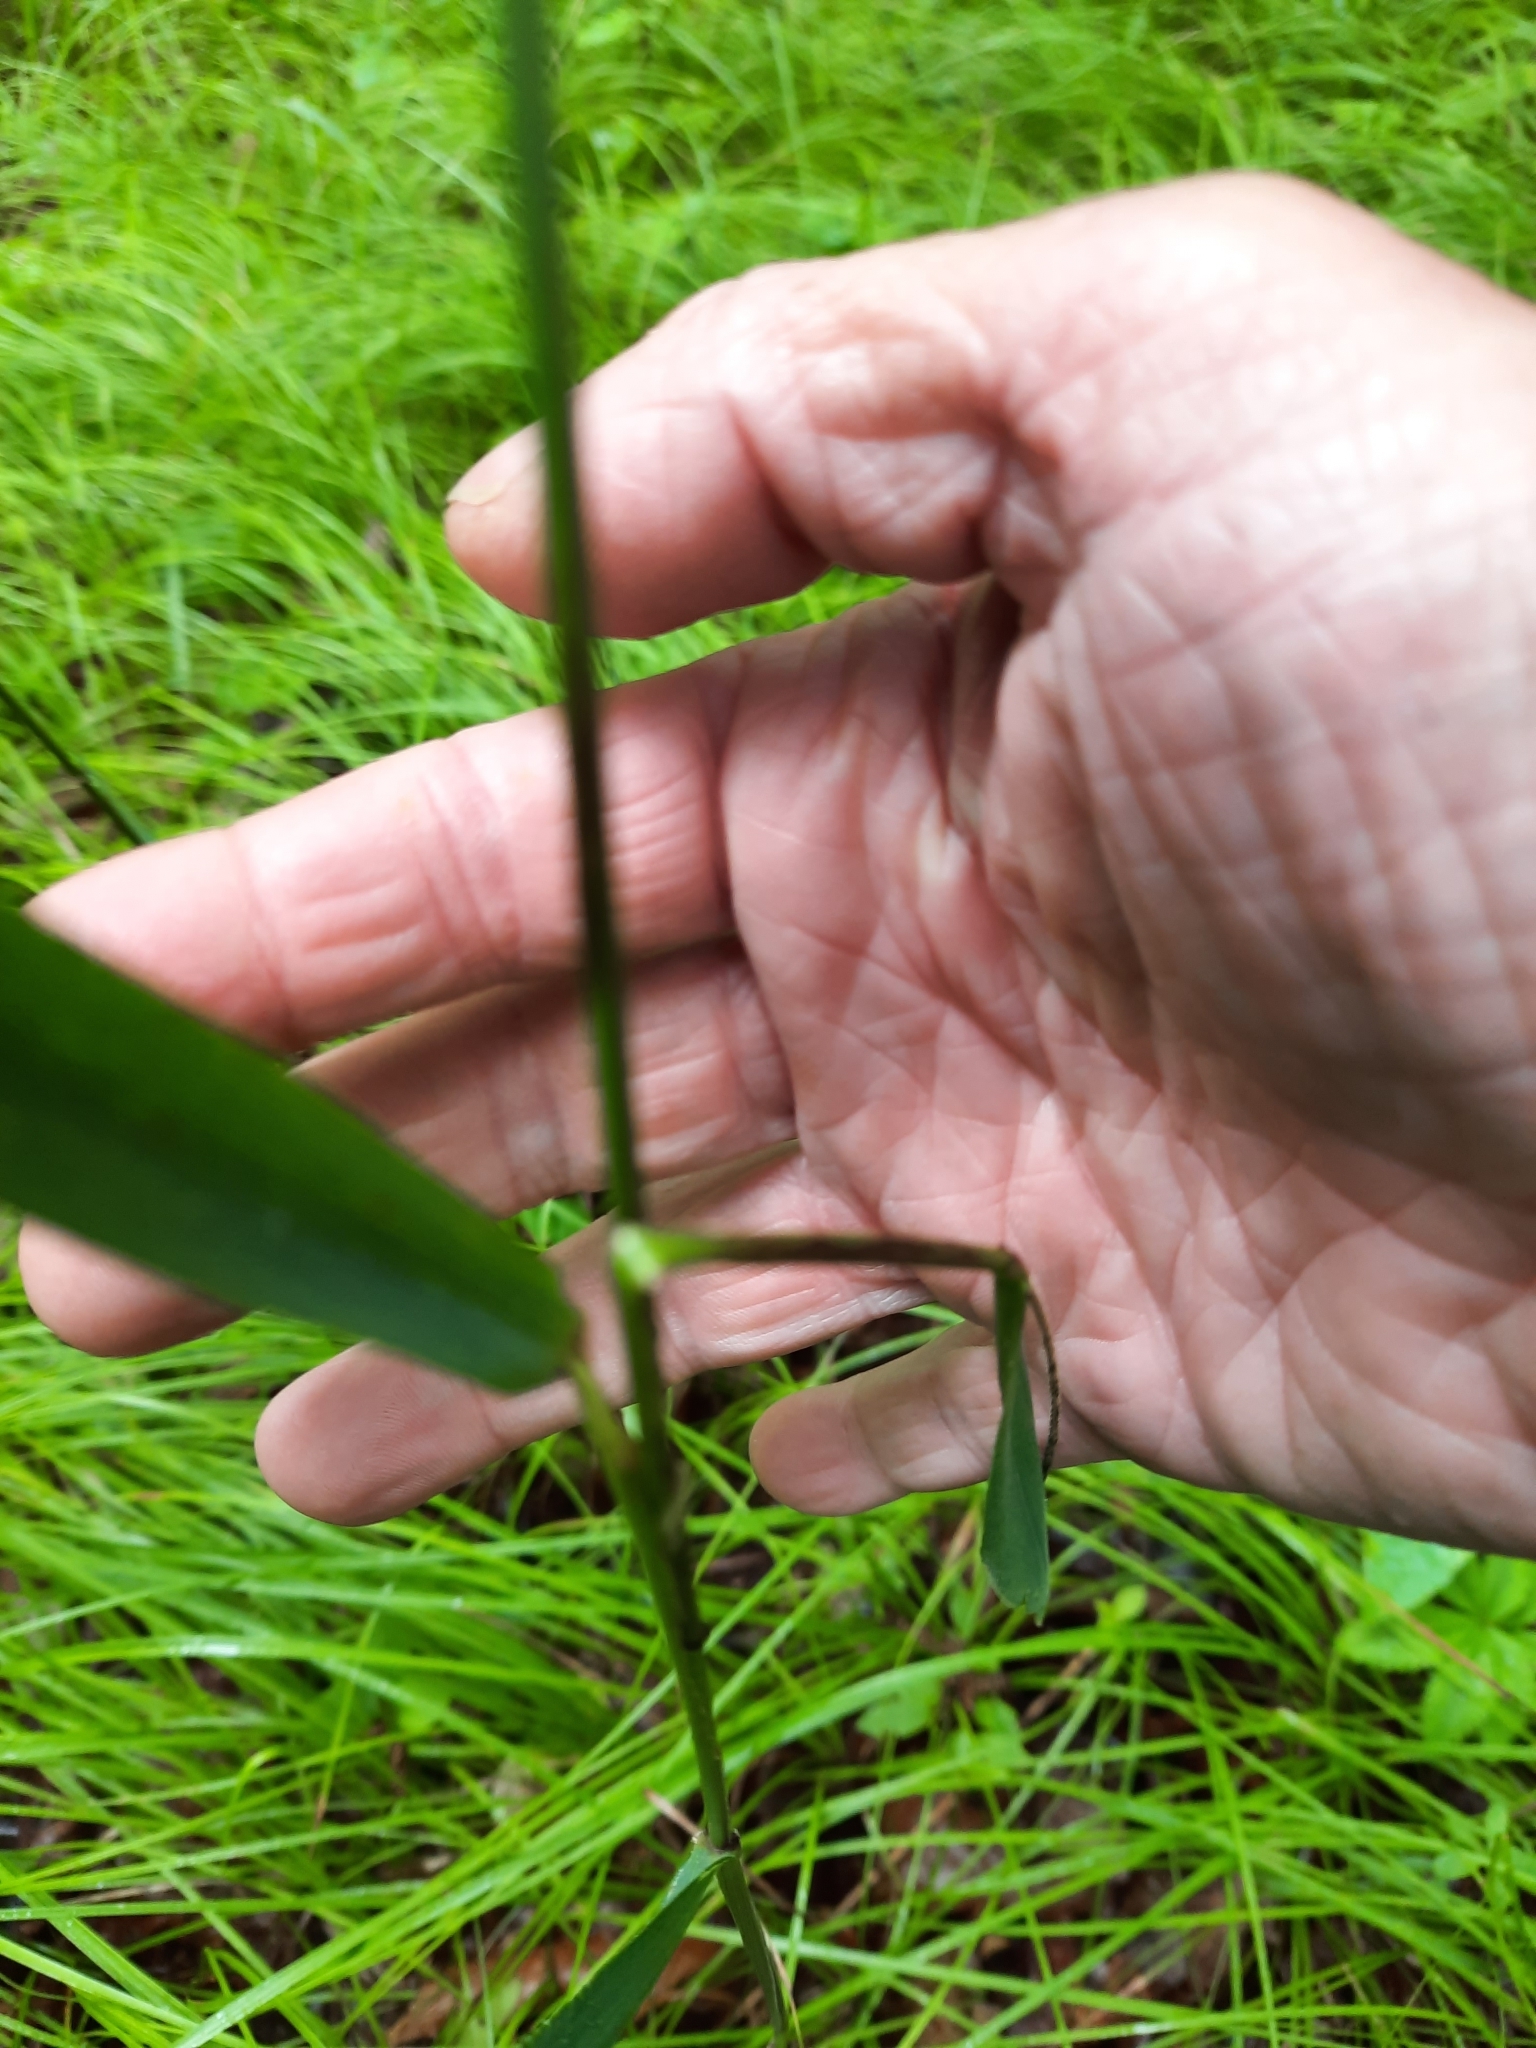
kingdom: Plantae
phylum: Tracheophyta
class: Liliopsida
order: Poales
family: Poaceae
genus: Elymus
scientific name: Elymus hystrix
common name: Bottlebrush grass
